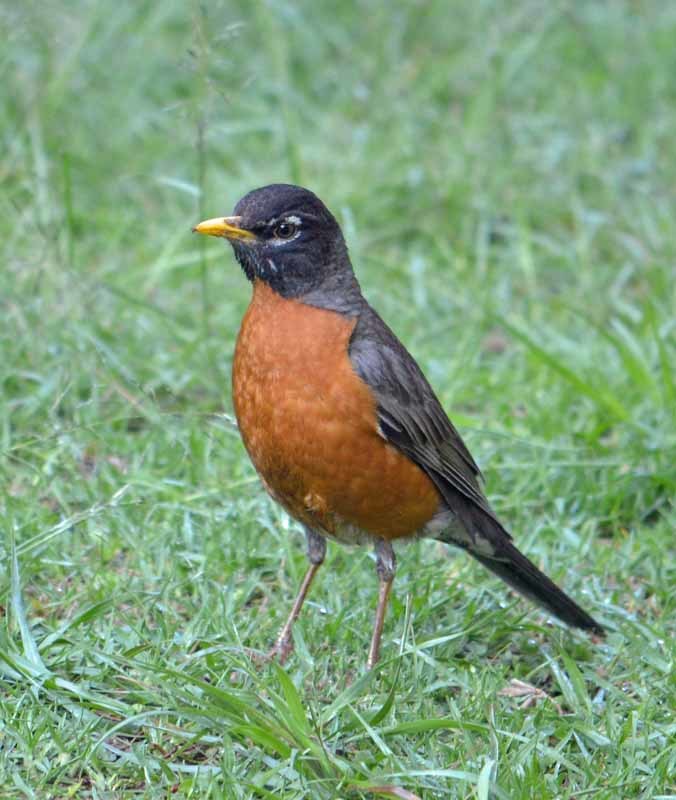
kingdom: Animalia
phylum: Chordata
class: Aves
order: Passeriformes
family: Turdidae
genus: Turdus
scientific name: Turdus migratorius
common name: American robin
